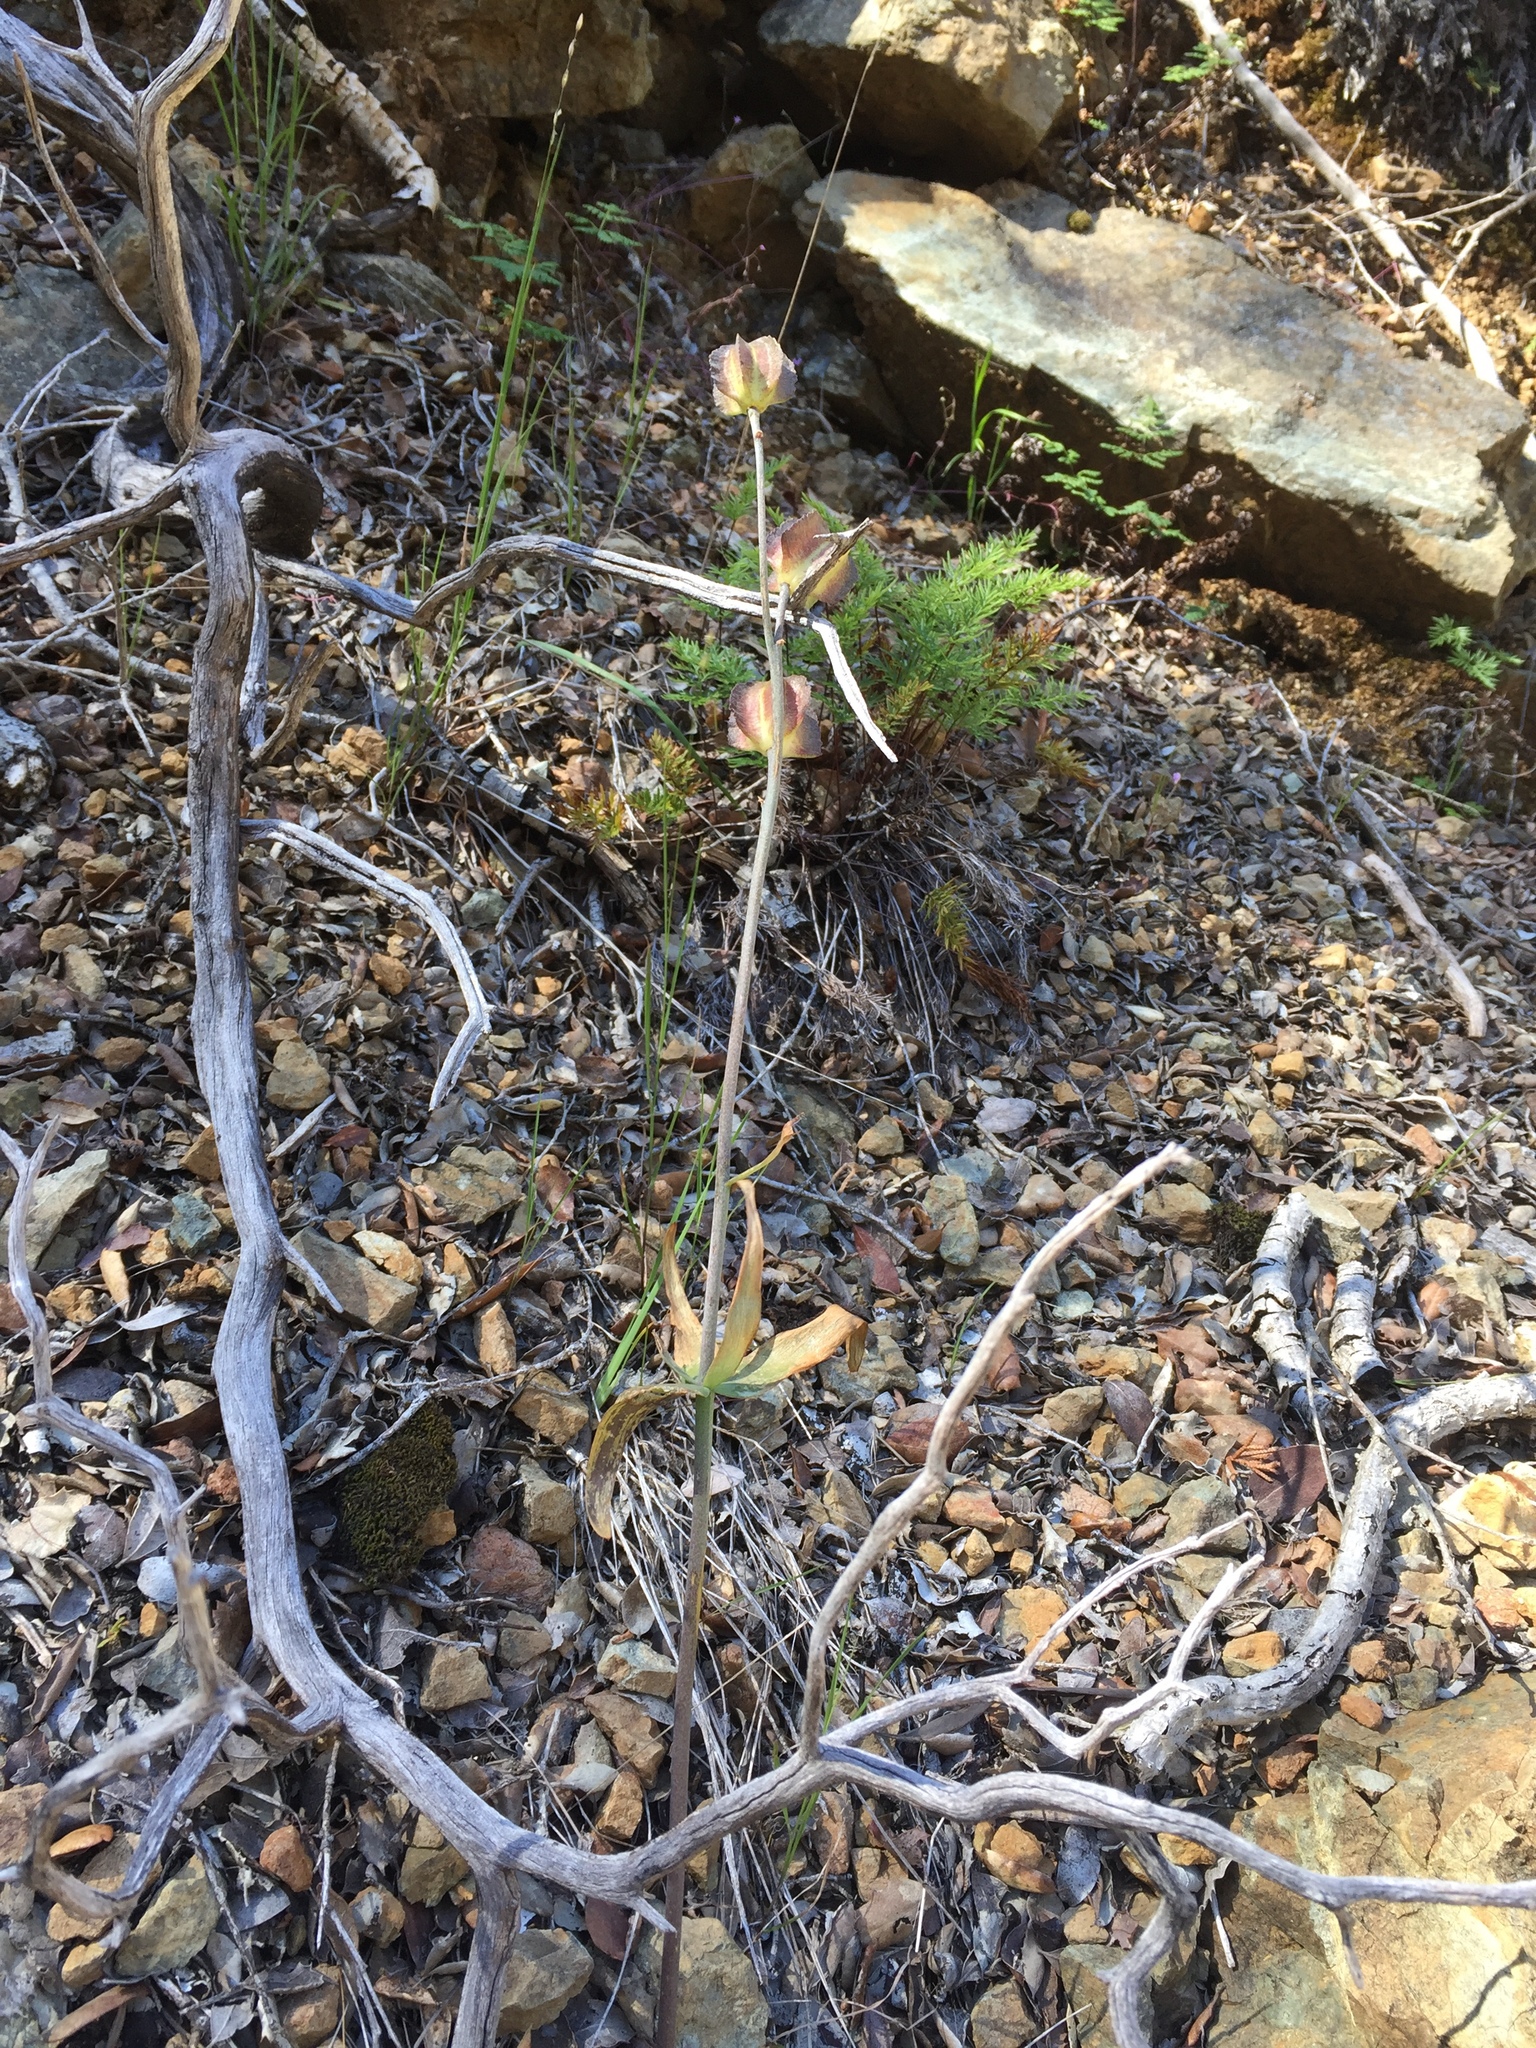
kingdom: Plantae
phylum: Tracheophyta
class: Liliopsida
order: Liliales
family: Liliaceae
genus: Fritillaria
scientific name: Fritillaria affinis
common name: Ojai fritillary
